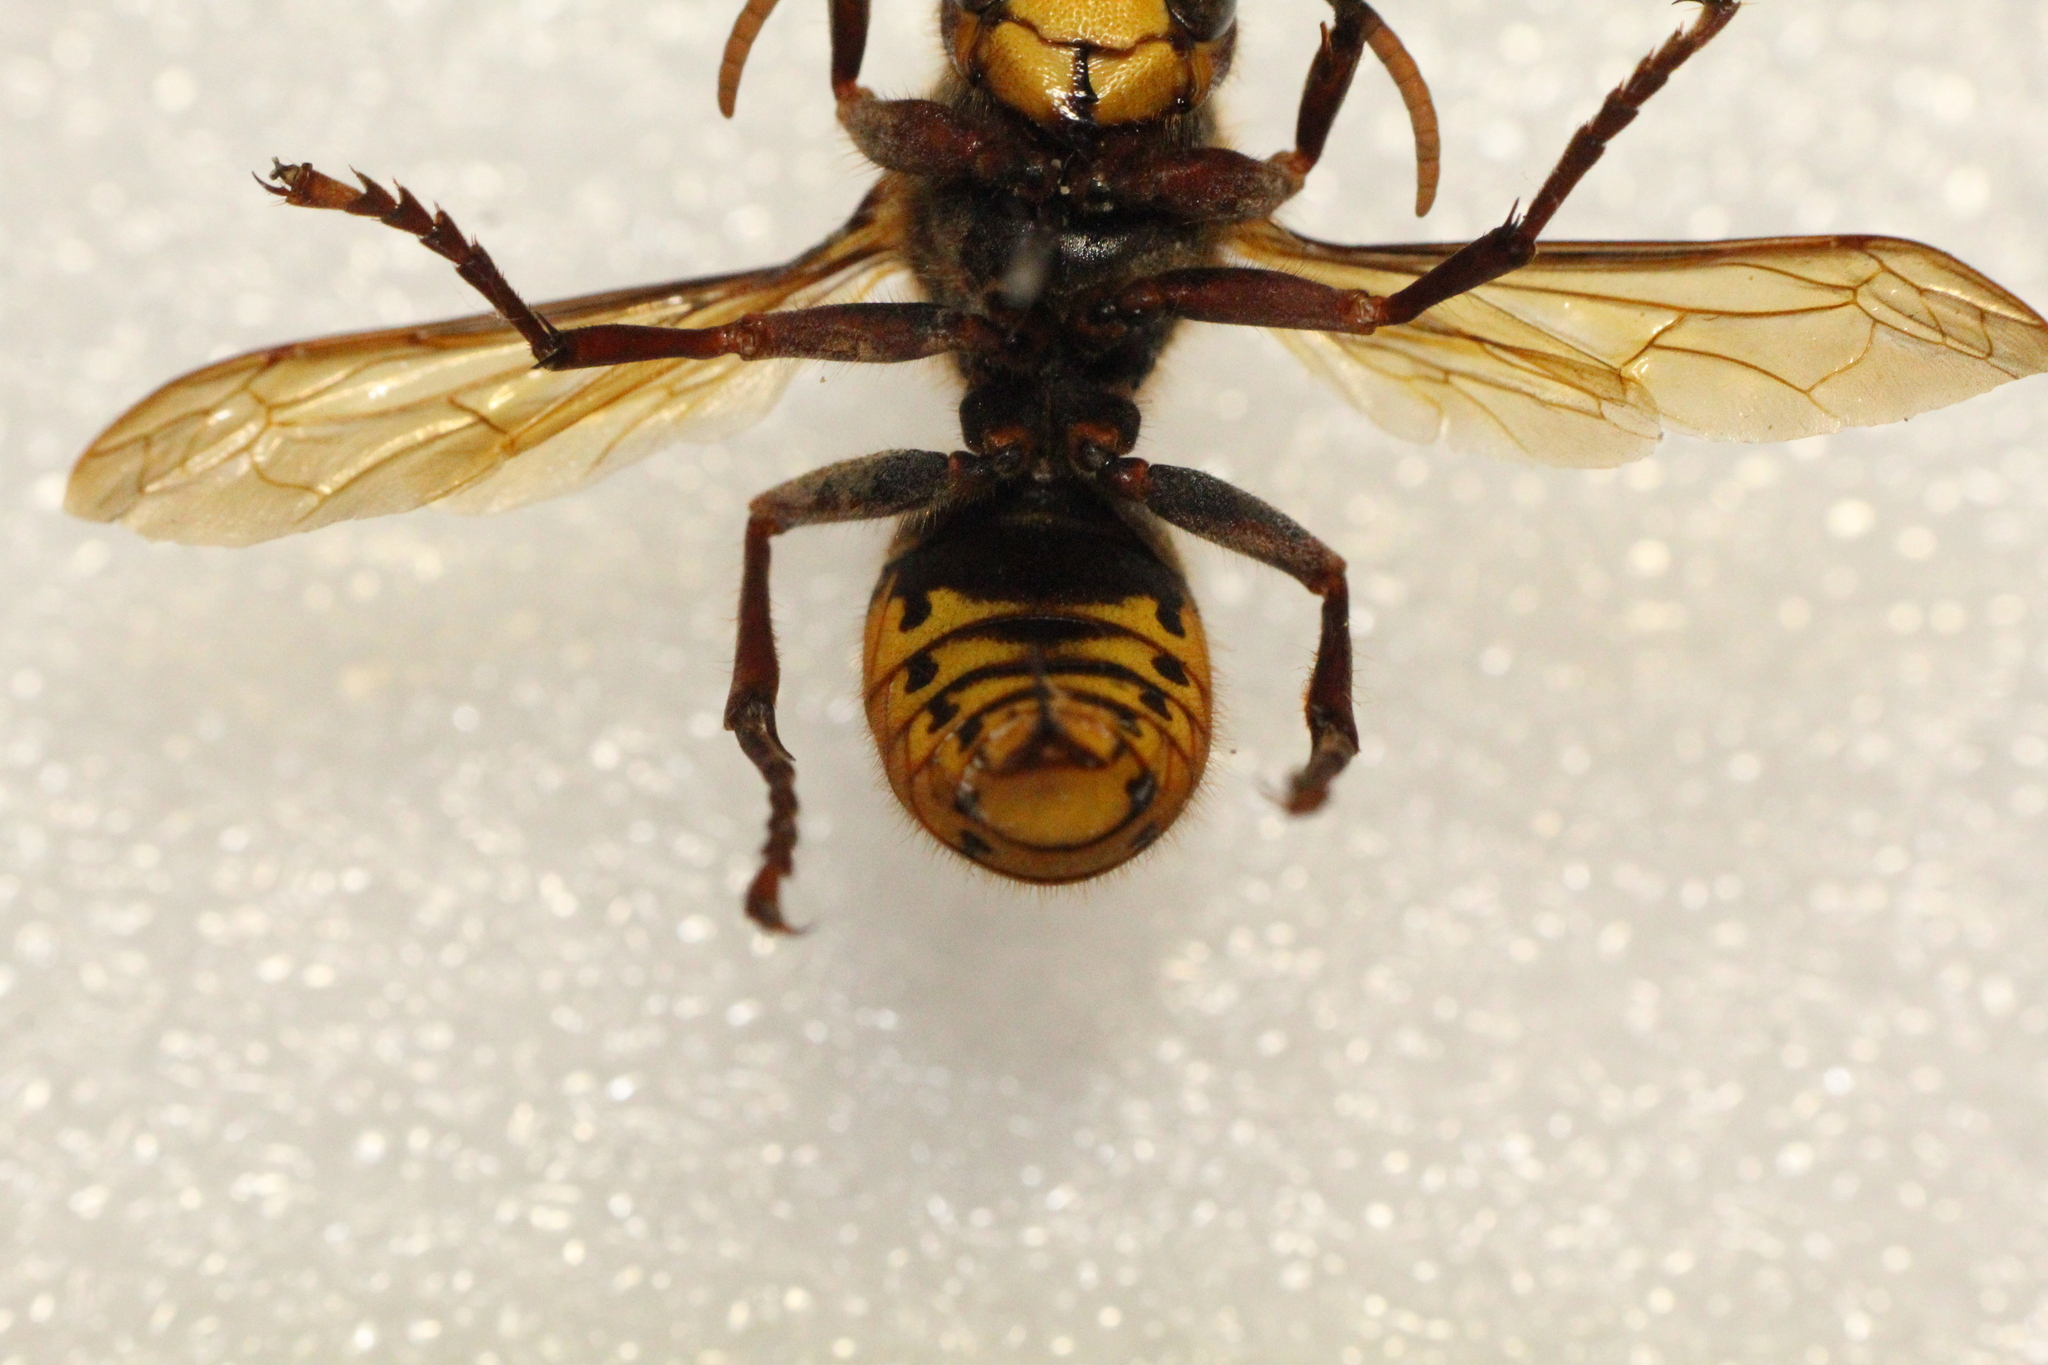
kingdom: Animalia
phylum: Arthropoda
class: Insecta
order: Hymenoptera
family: Vespidae
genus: Vespa
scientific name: Vespa crabro
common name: Hornet
